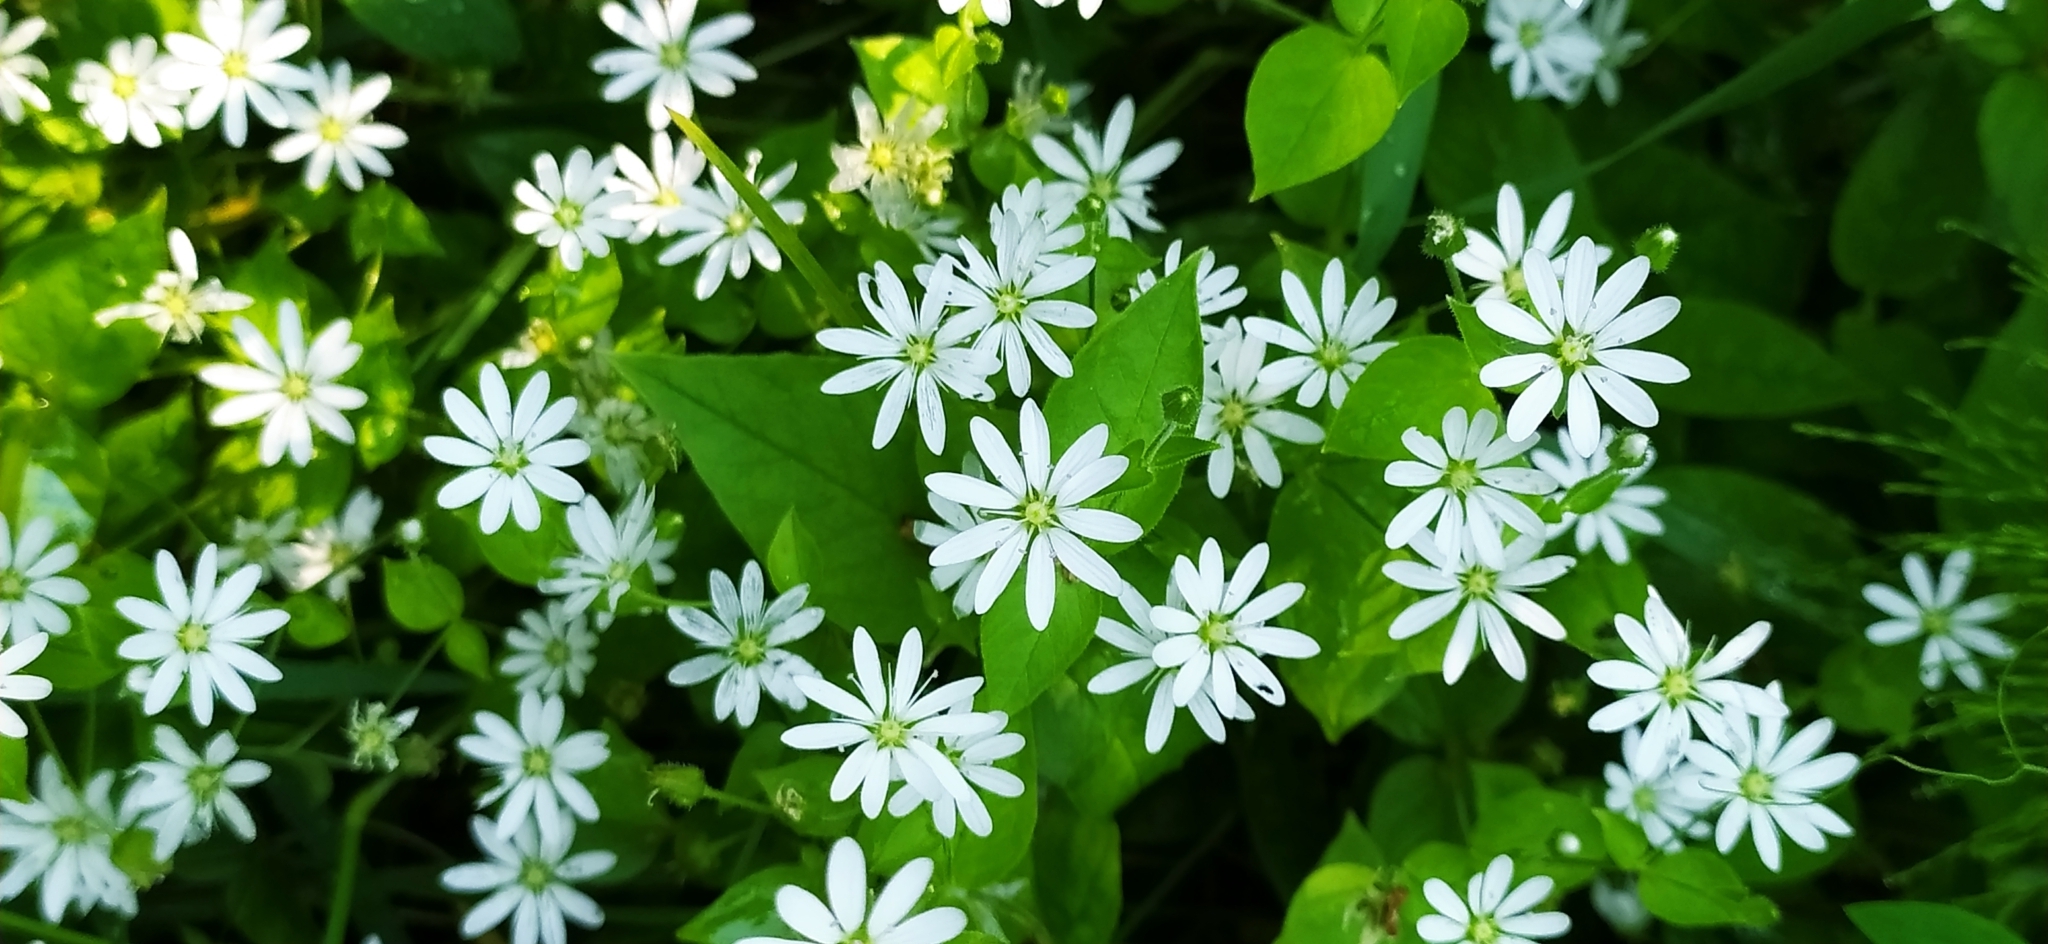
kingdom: Plantae
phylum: Tracheophyta
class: Magnoliopsida
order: Caryophyllales
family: Caryophyllaceae
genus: Stellaria
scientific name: Stellaria bungeana
